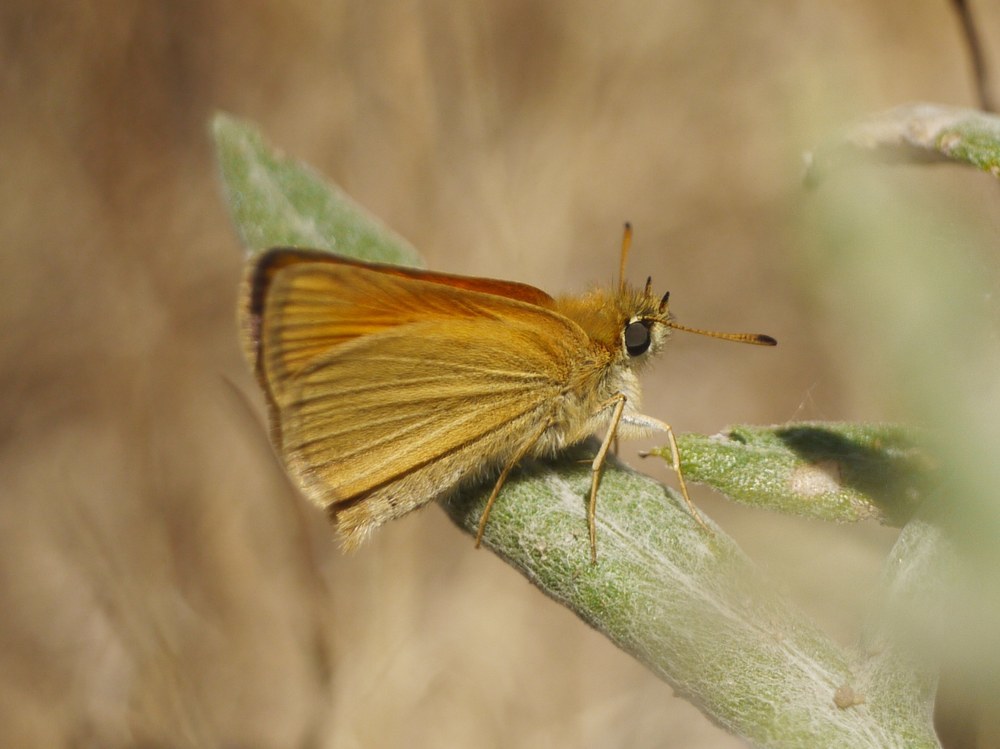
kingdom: Animalia
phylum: Arthropoda
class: Insecta
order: Lepidoptera
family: Hesperiidae
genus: Thymelicus
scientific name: Thymelicus lineola
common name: Essex skipper
